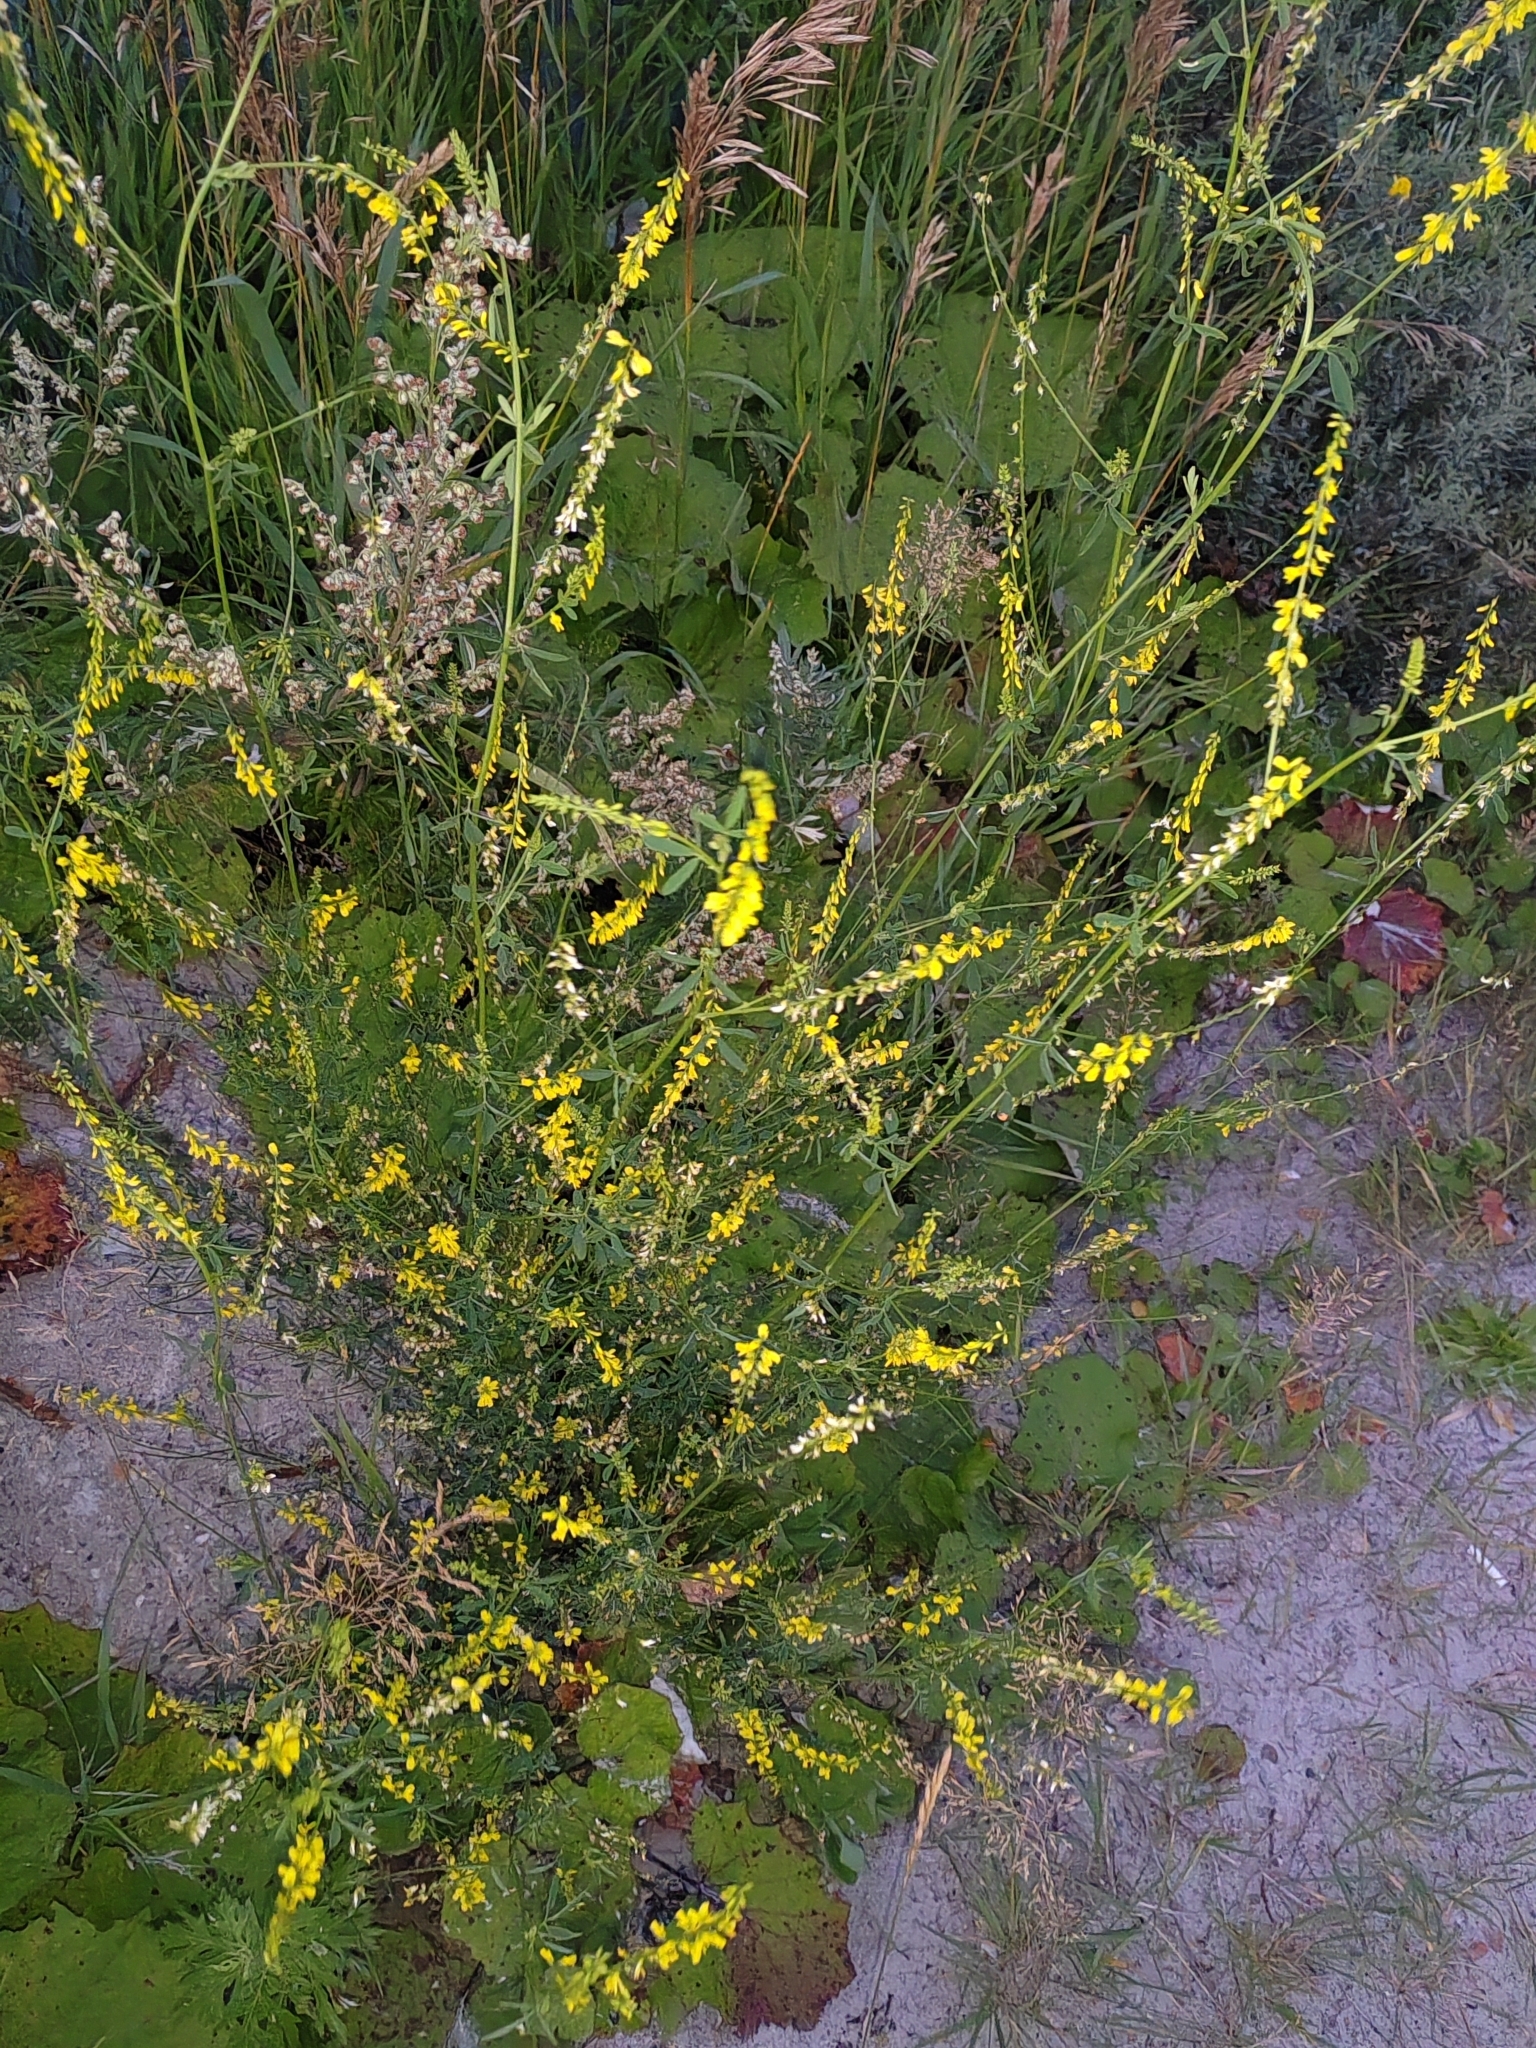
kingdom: Plantae
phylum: Tracheophyta
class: Magnoliopsida
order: Fabales
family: Fabaceae
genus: Melilotus
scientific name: Melilotus officinalis
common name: Sweetclover
